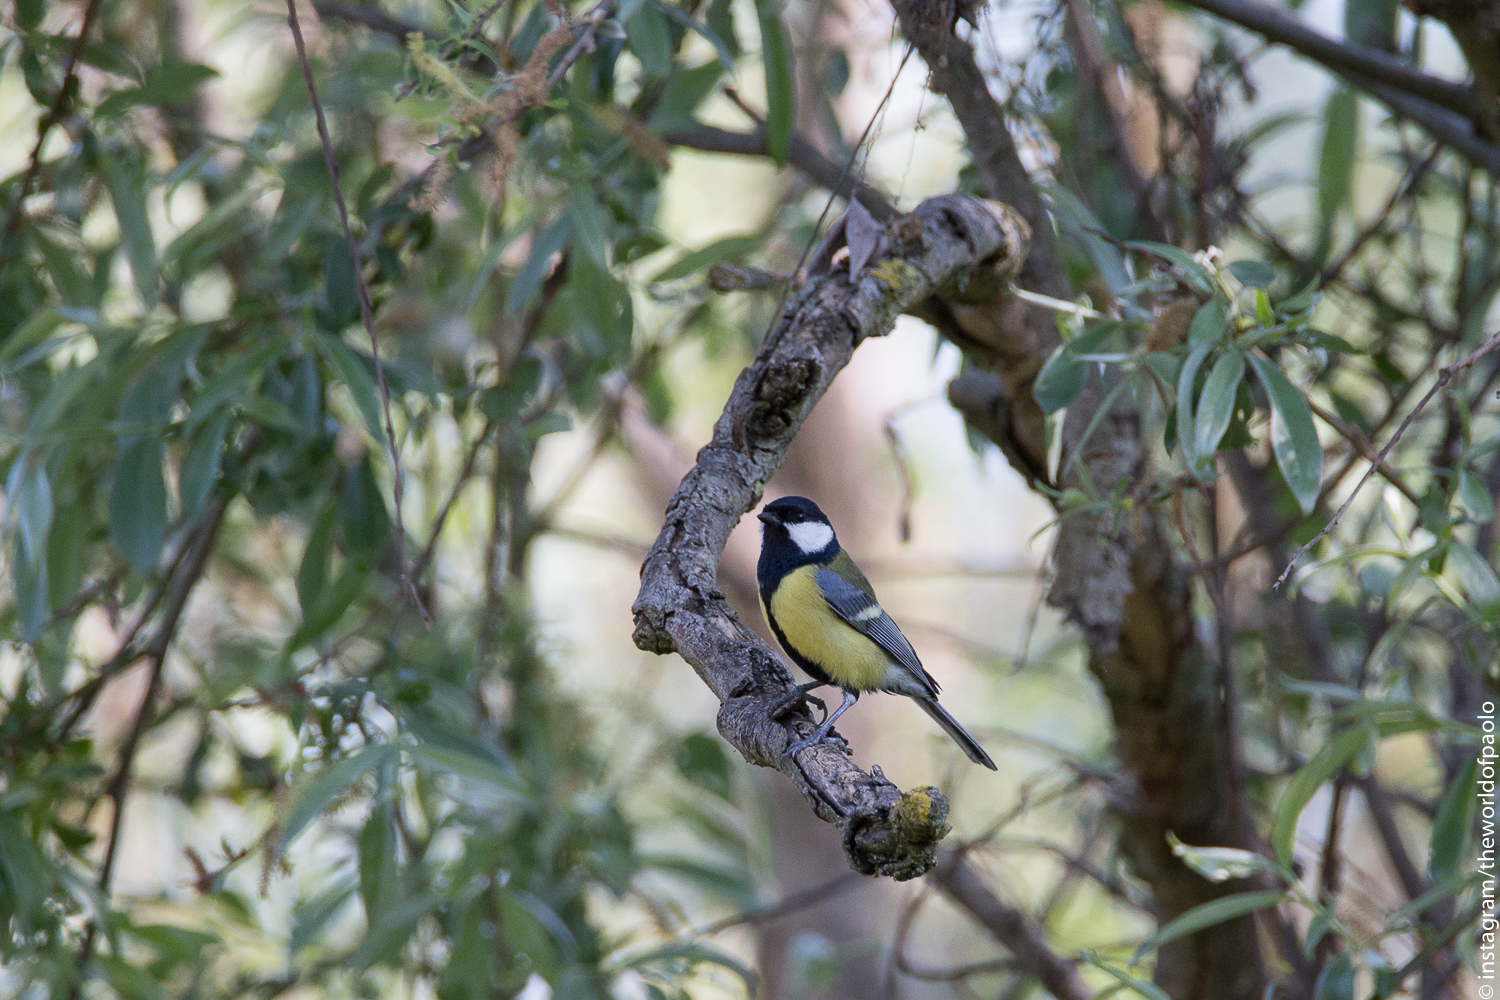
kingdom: Animalia
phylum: Chordata
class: Aves
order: Passeriformes
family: Paridae
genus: Parus
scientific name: Parus major
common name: Great tit
